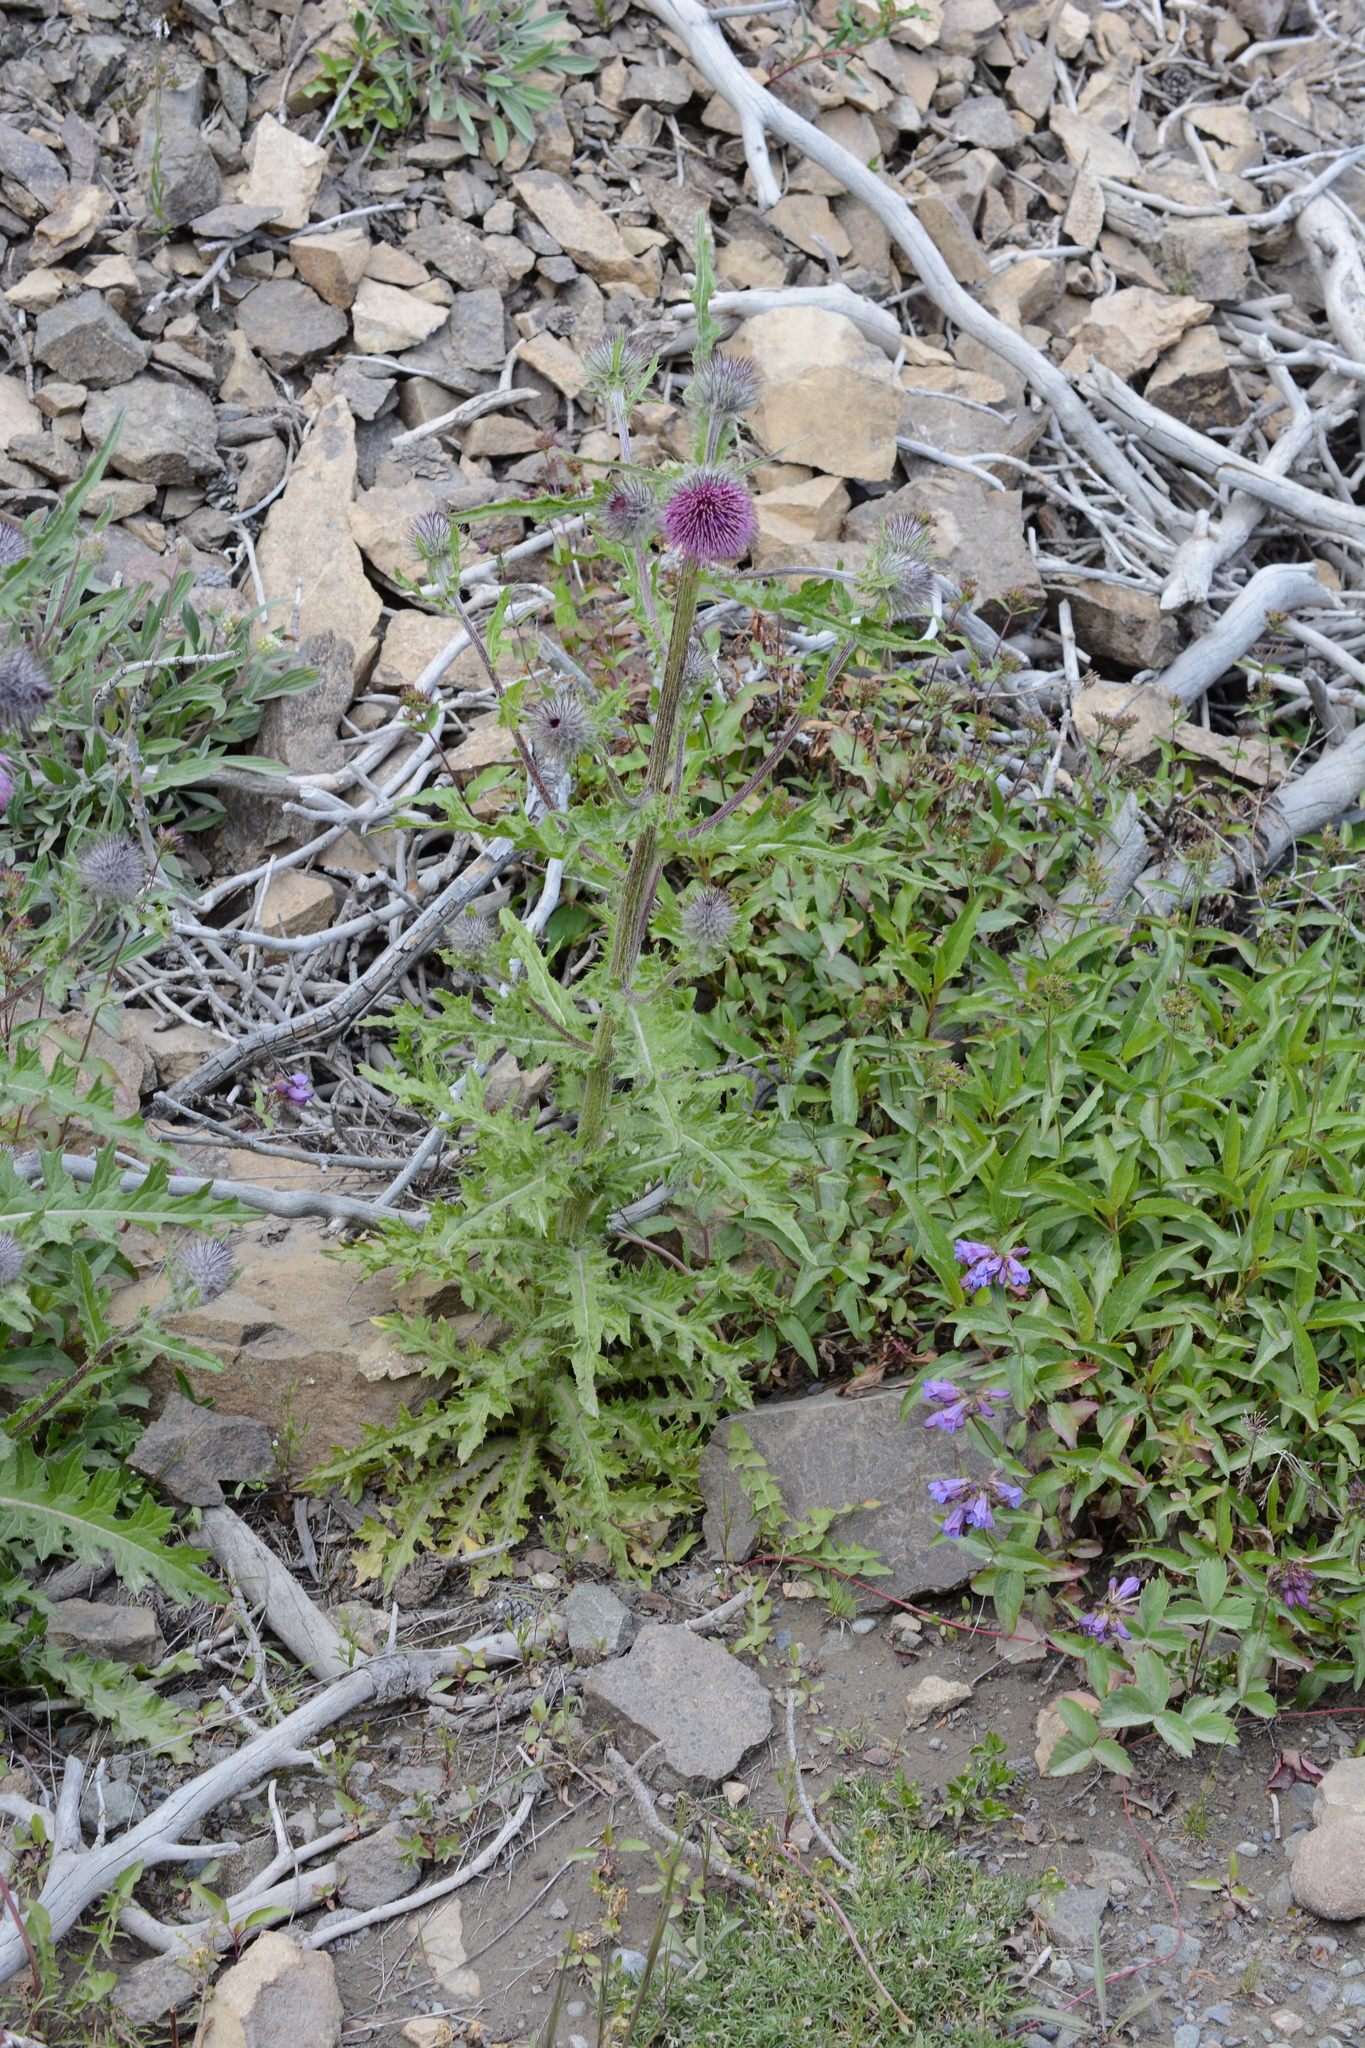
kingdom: Plantae
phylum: Tracheophyta
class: Magnoliopsida
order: Asterales
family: Asteraceae
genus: Cirsium
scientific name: Cirsium edule
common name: Indian thistle
